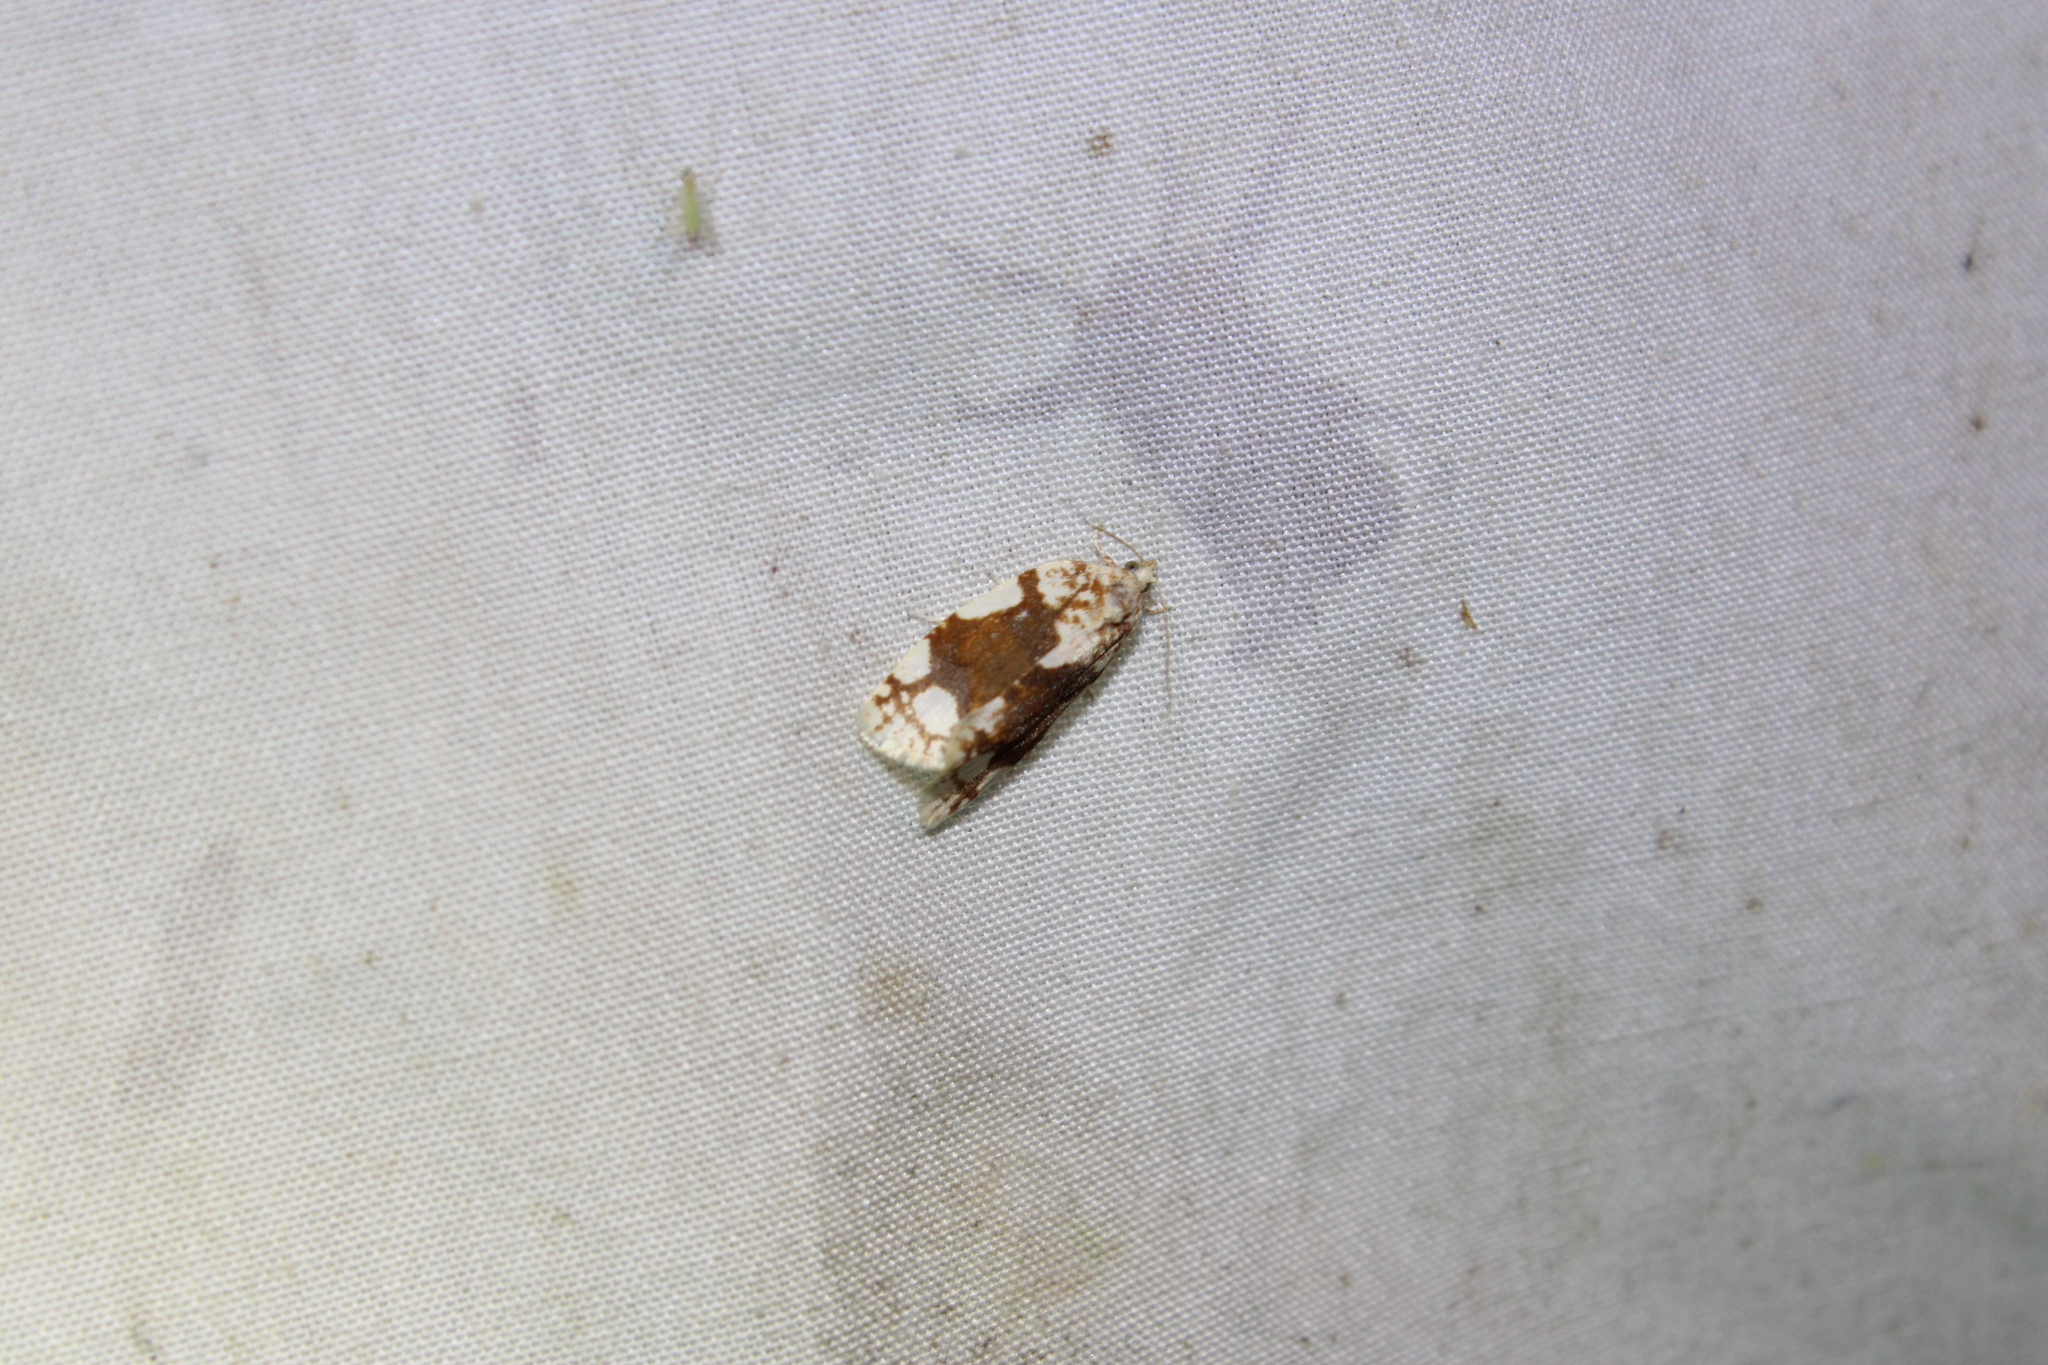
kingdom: Animalia
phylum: Arthropoda
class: Insecta
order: Lepidoptera
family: Tortricidae
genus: Argyrotaenia
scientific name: Argyrotaenia alisellana
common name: White-spotted leafroller moth
